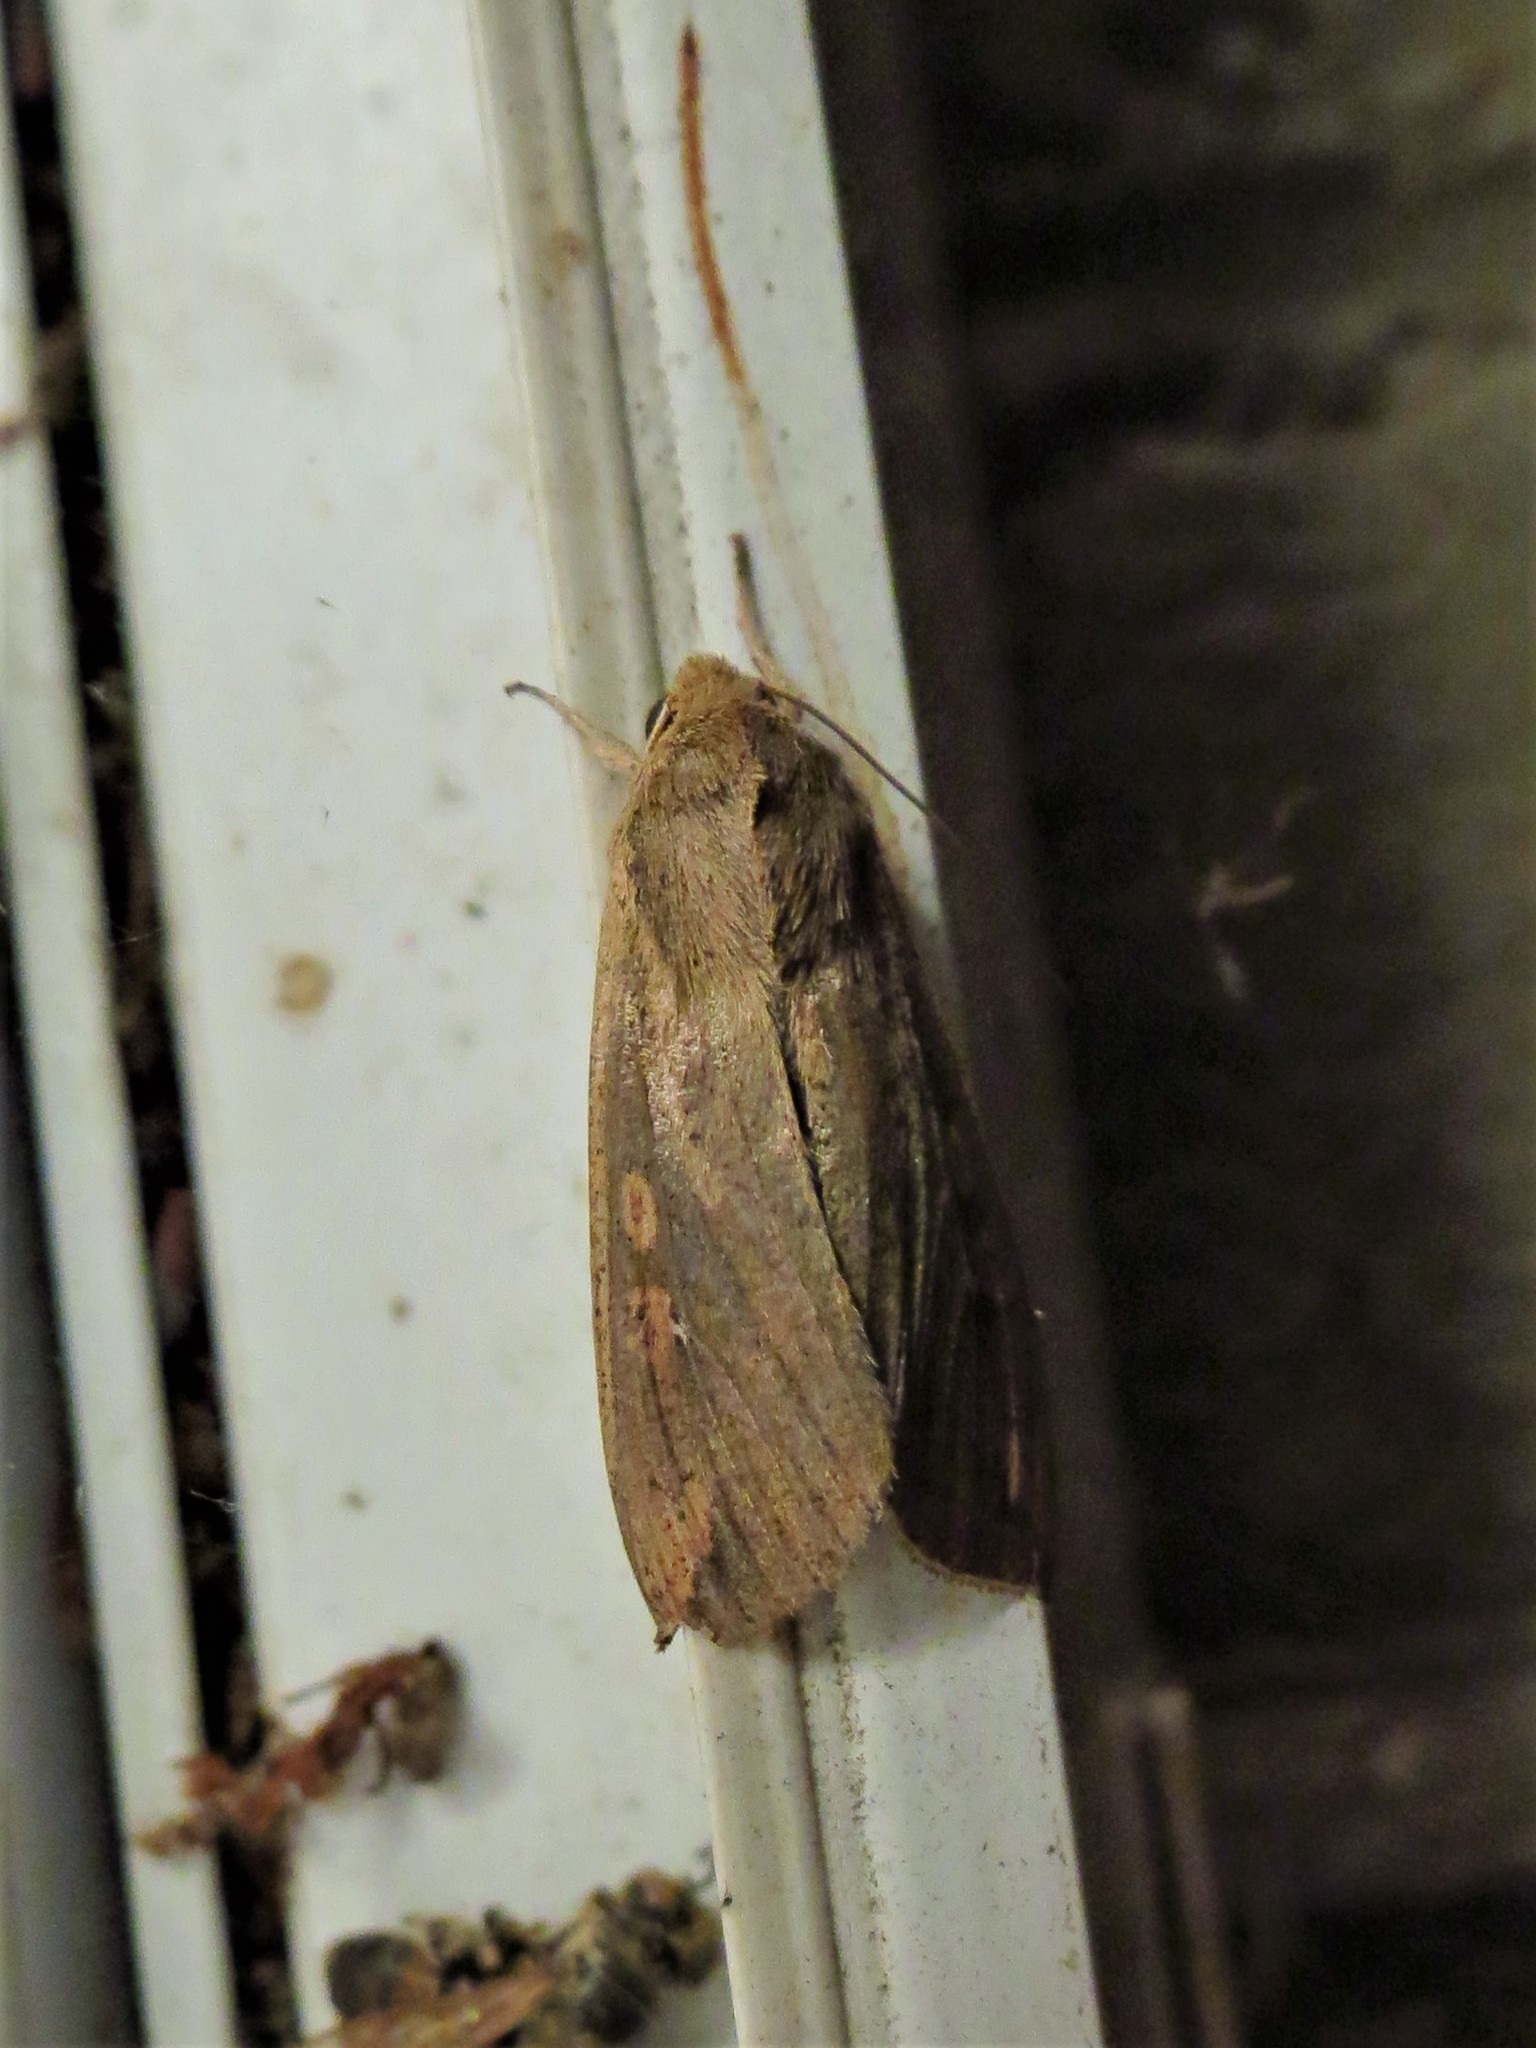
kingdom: Animalia
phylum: Arthropoda
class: Insecta
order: Lepidoptera
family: Noctuidae
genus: Mythimna
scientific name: Mythimna unipuncta
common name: White-speck
